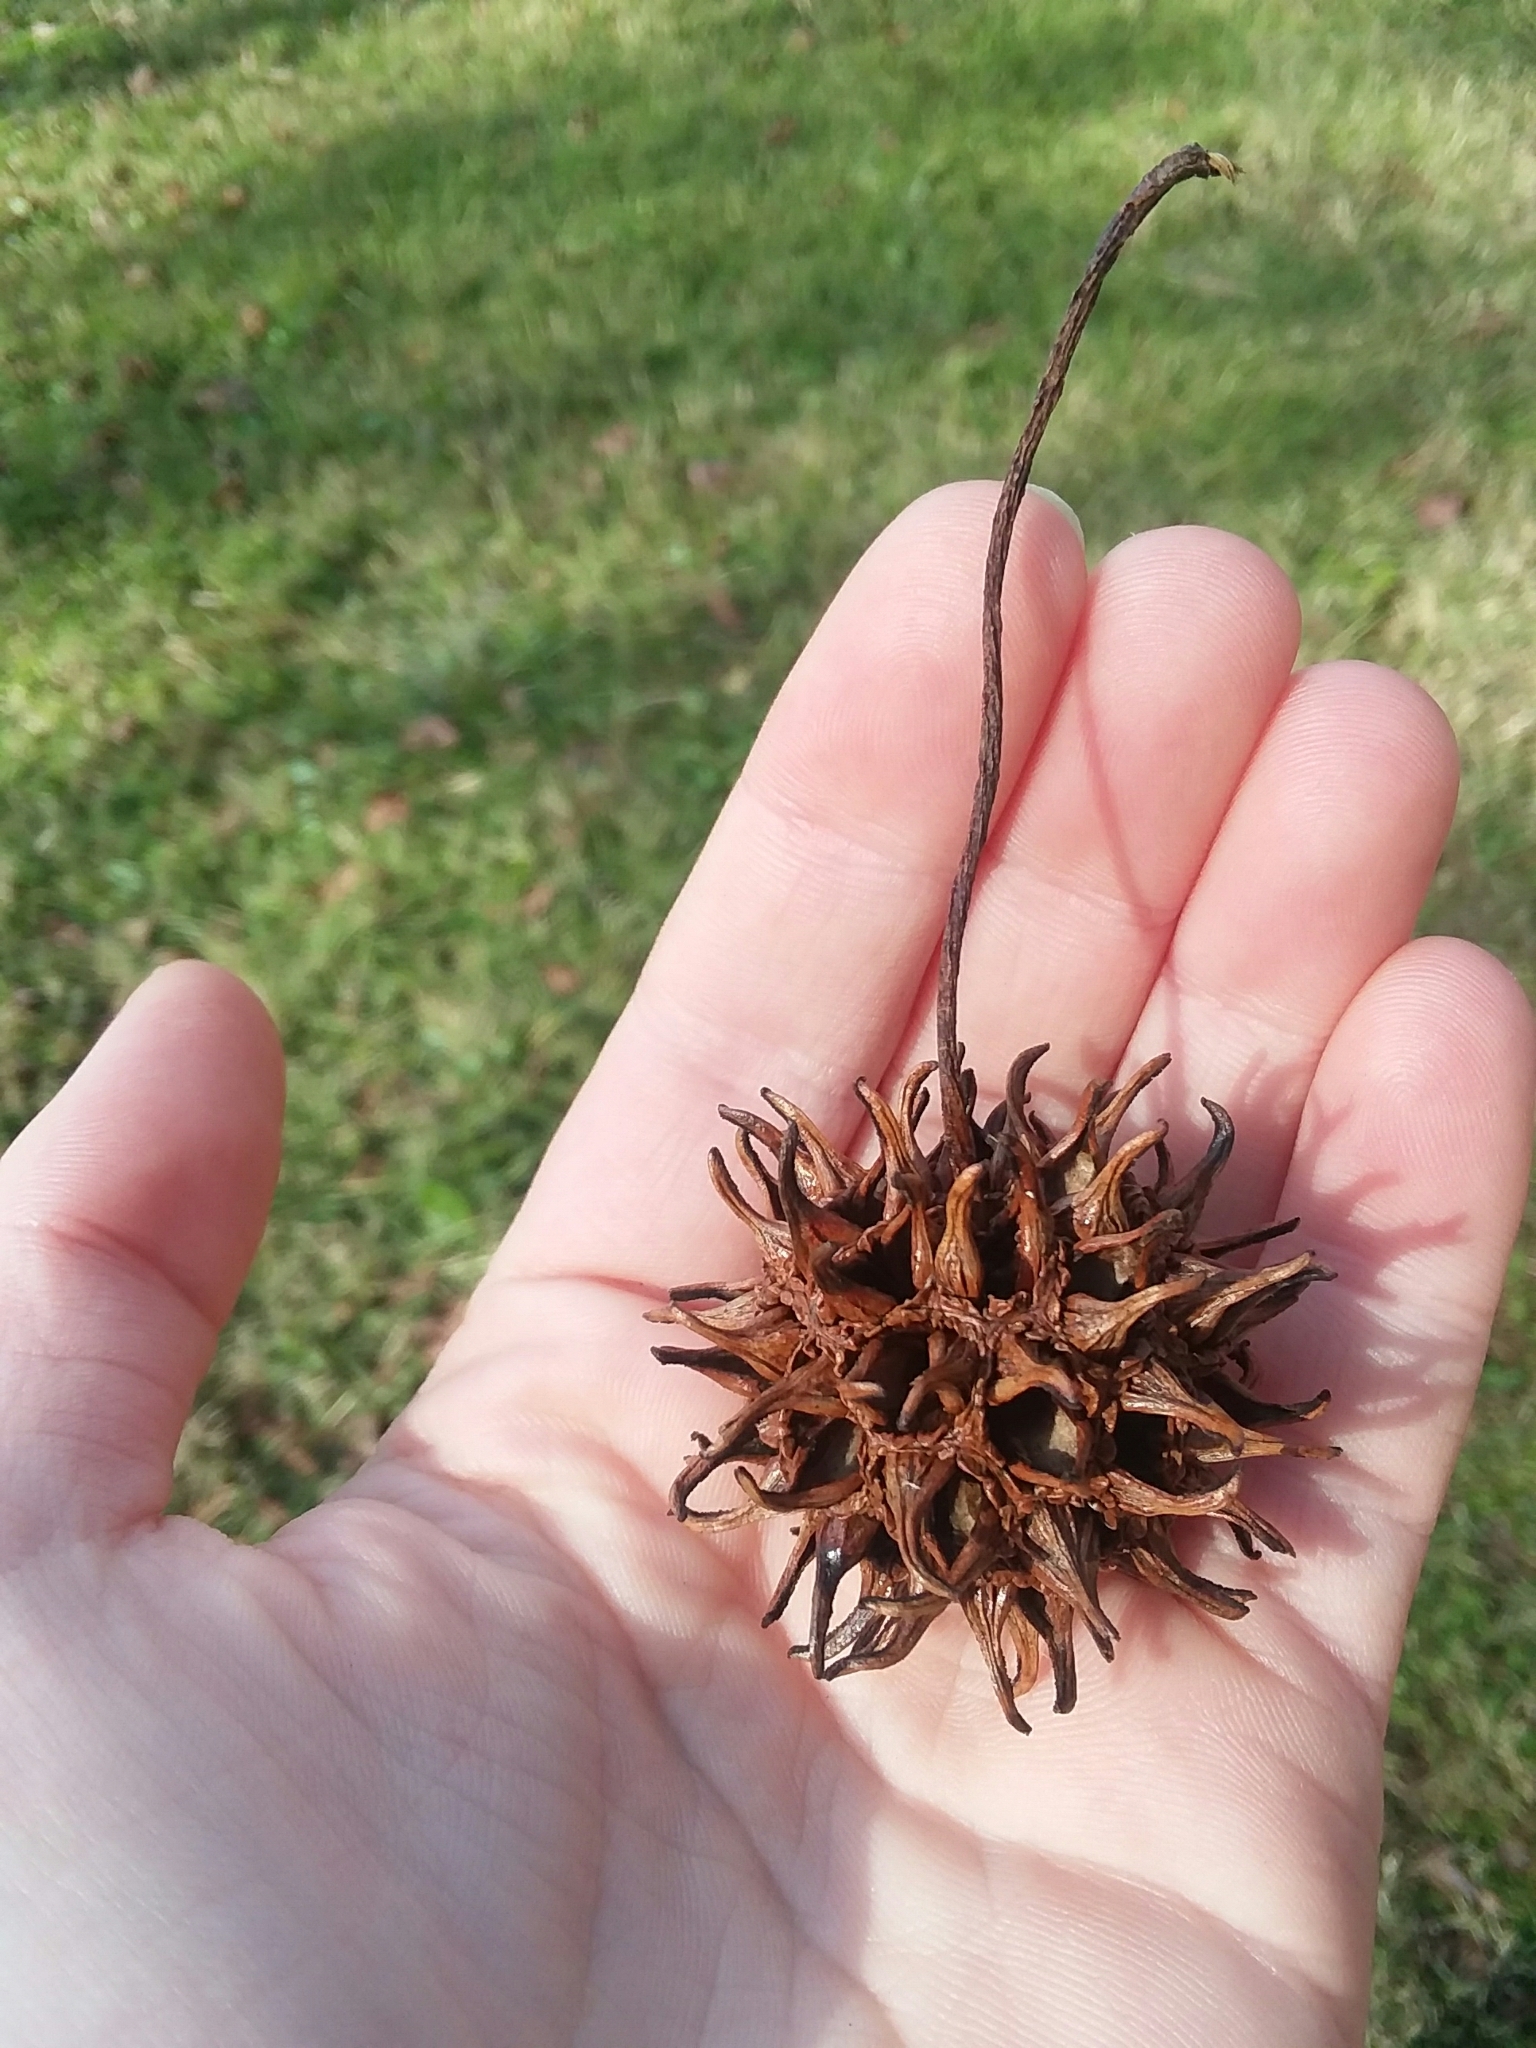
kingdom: Plantae
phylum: Tracheophyta
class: Magnoliopsida
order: Saxifragales
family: Altingiaceae
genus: Liquidambar
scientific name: Liquidambar styraciflua
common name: Sweet gum
